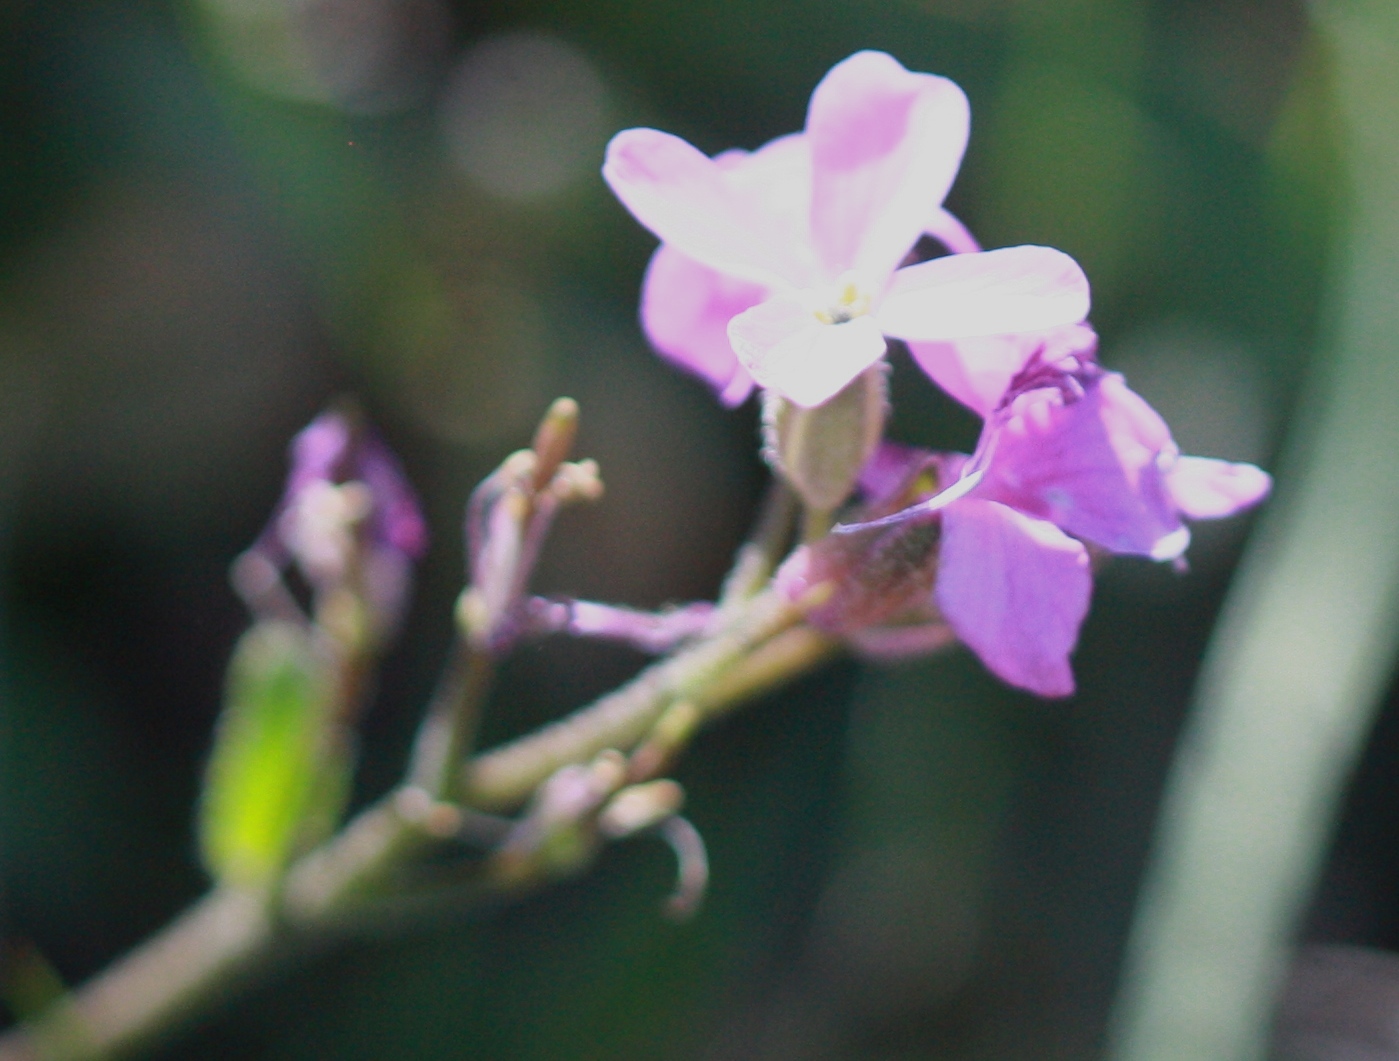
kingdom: Plantae
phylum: Tracheophyta
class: Magnoliopsida
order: Brassicales
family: Brassicaceae
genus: Arabis
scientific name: Arabis blepharophylla
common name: Rose rockcress
